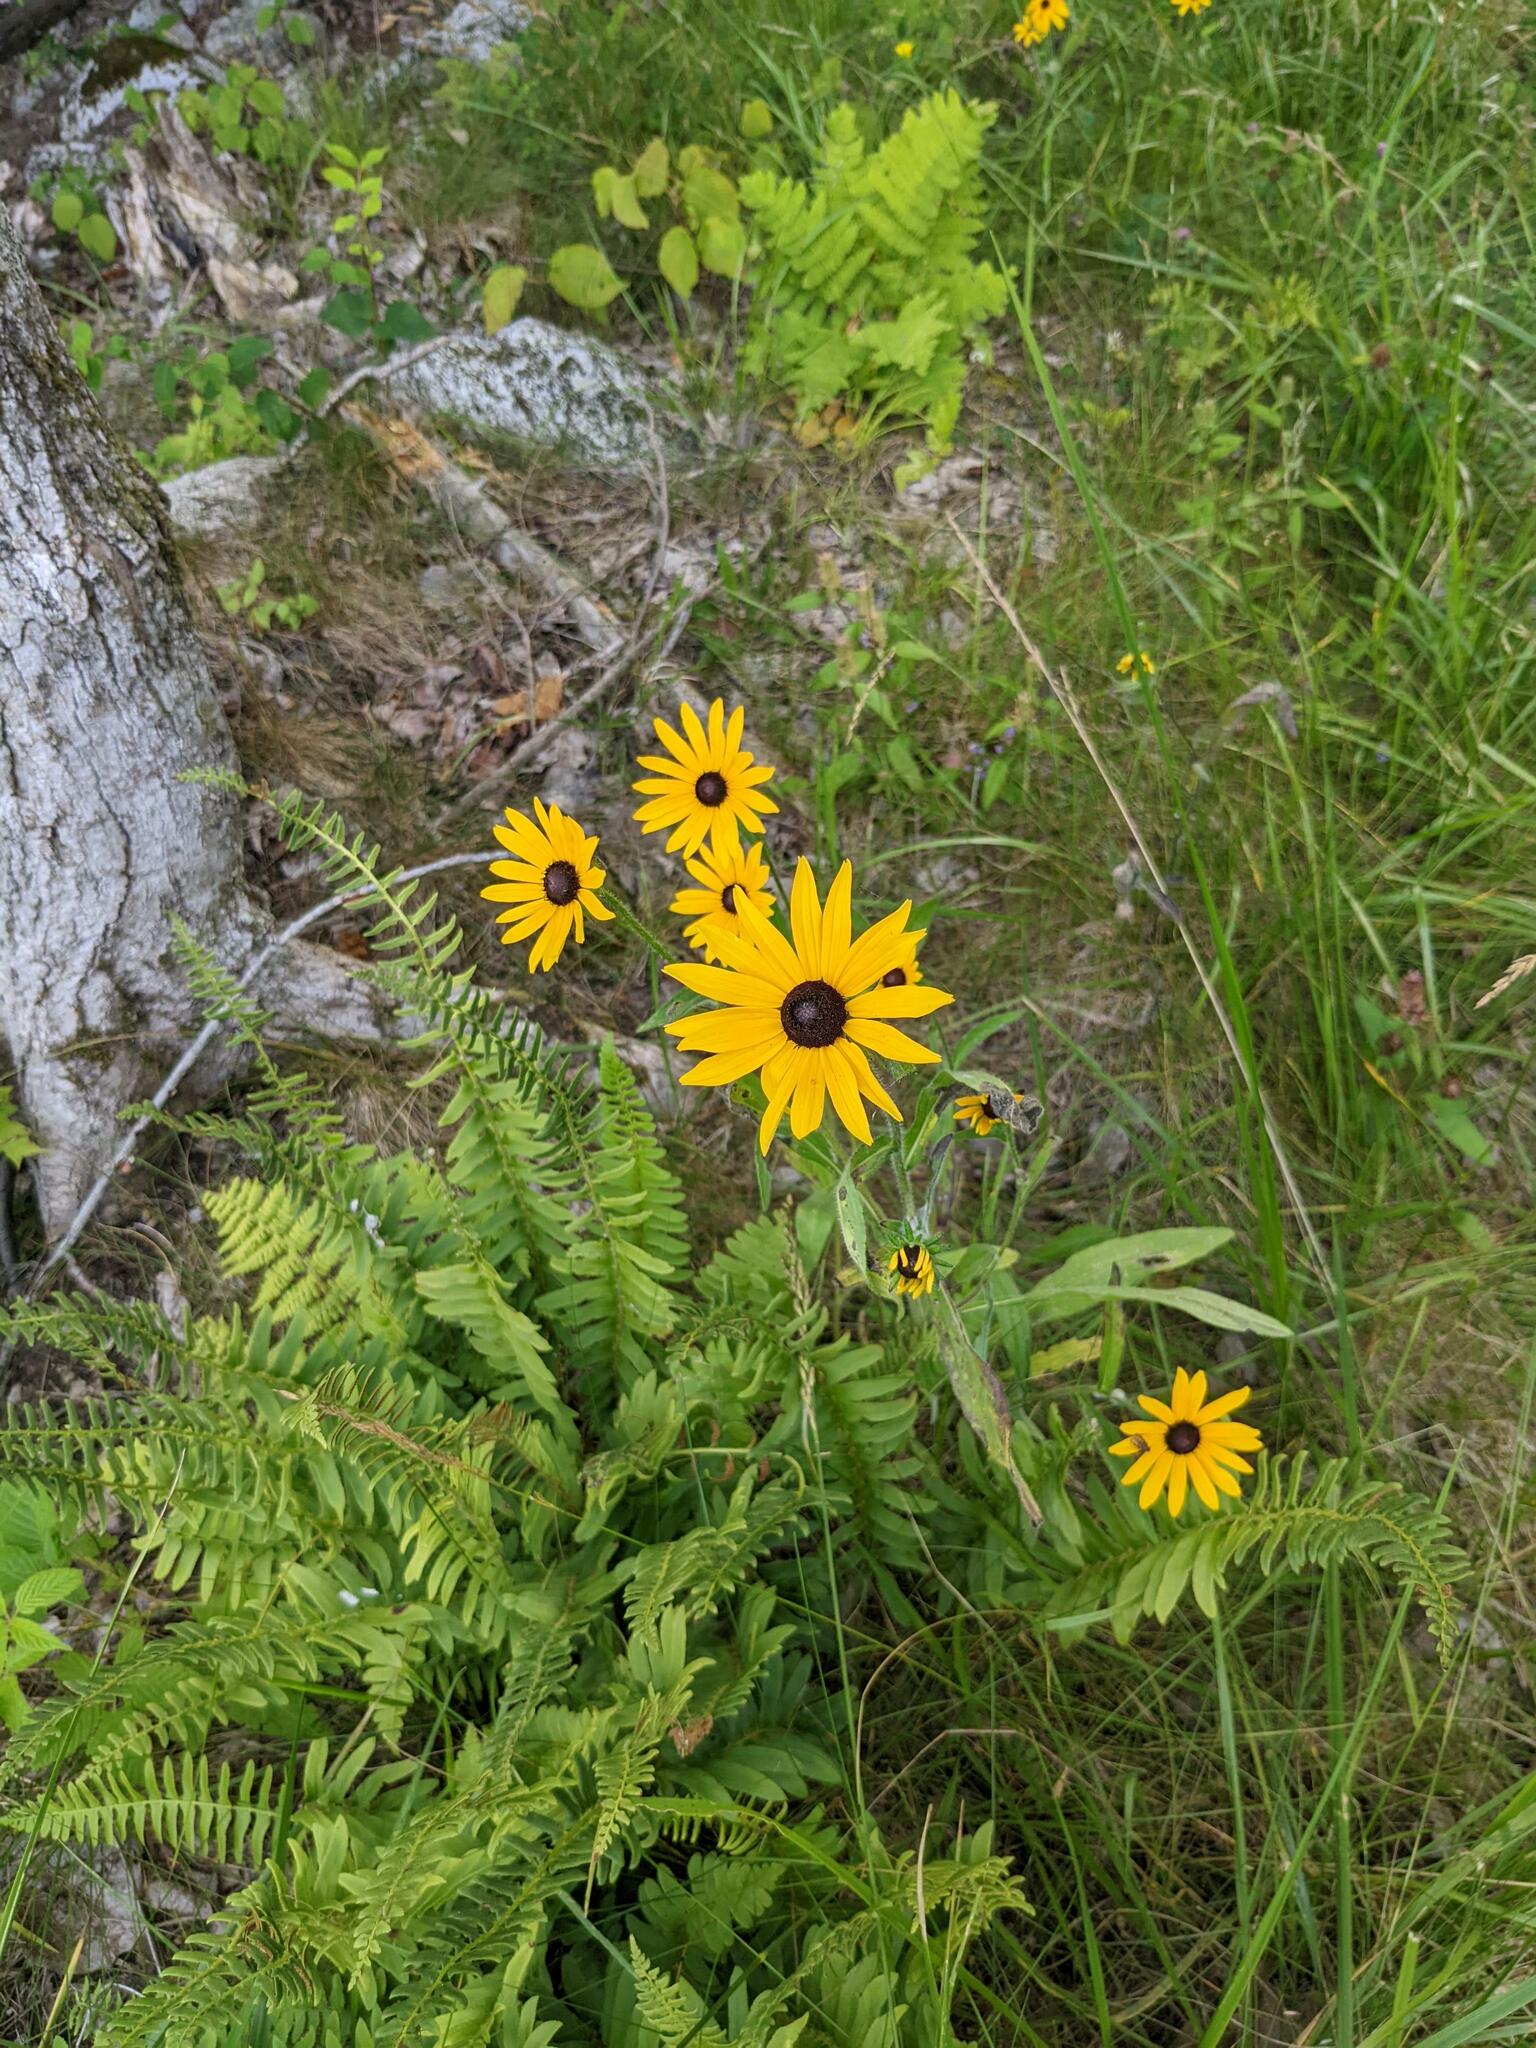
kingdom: Plantae
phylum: Tracheophyta
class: Magnoliopsida
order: Asterales
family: Asteraceae
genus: Rudbeckia
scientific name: Rudbeckia hirta
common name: Black-eyed-susan
